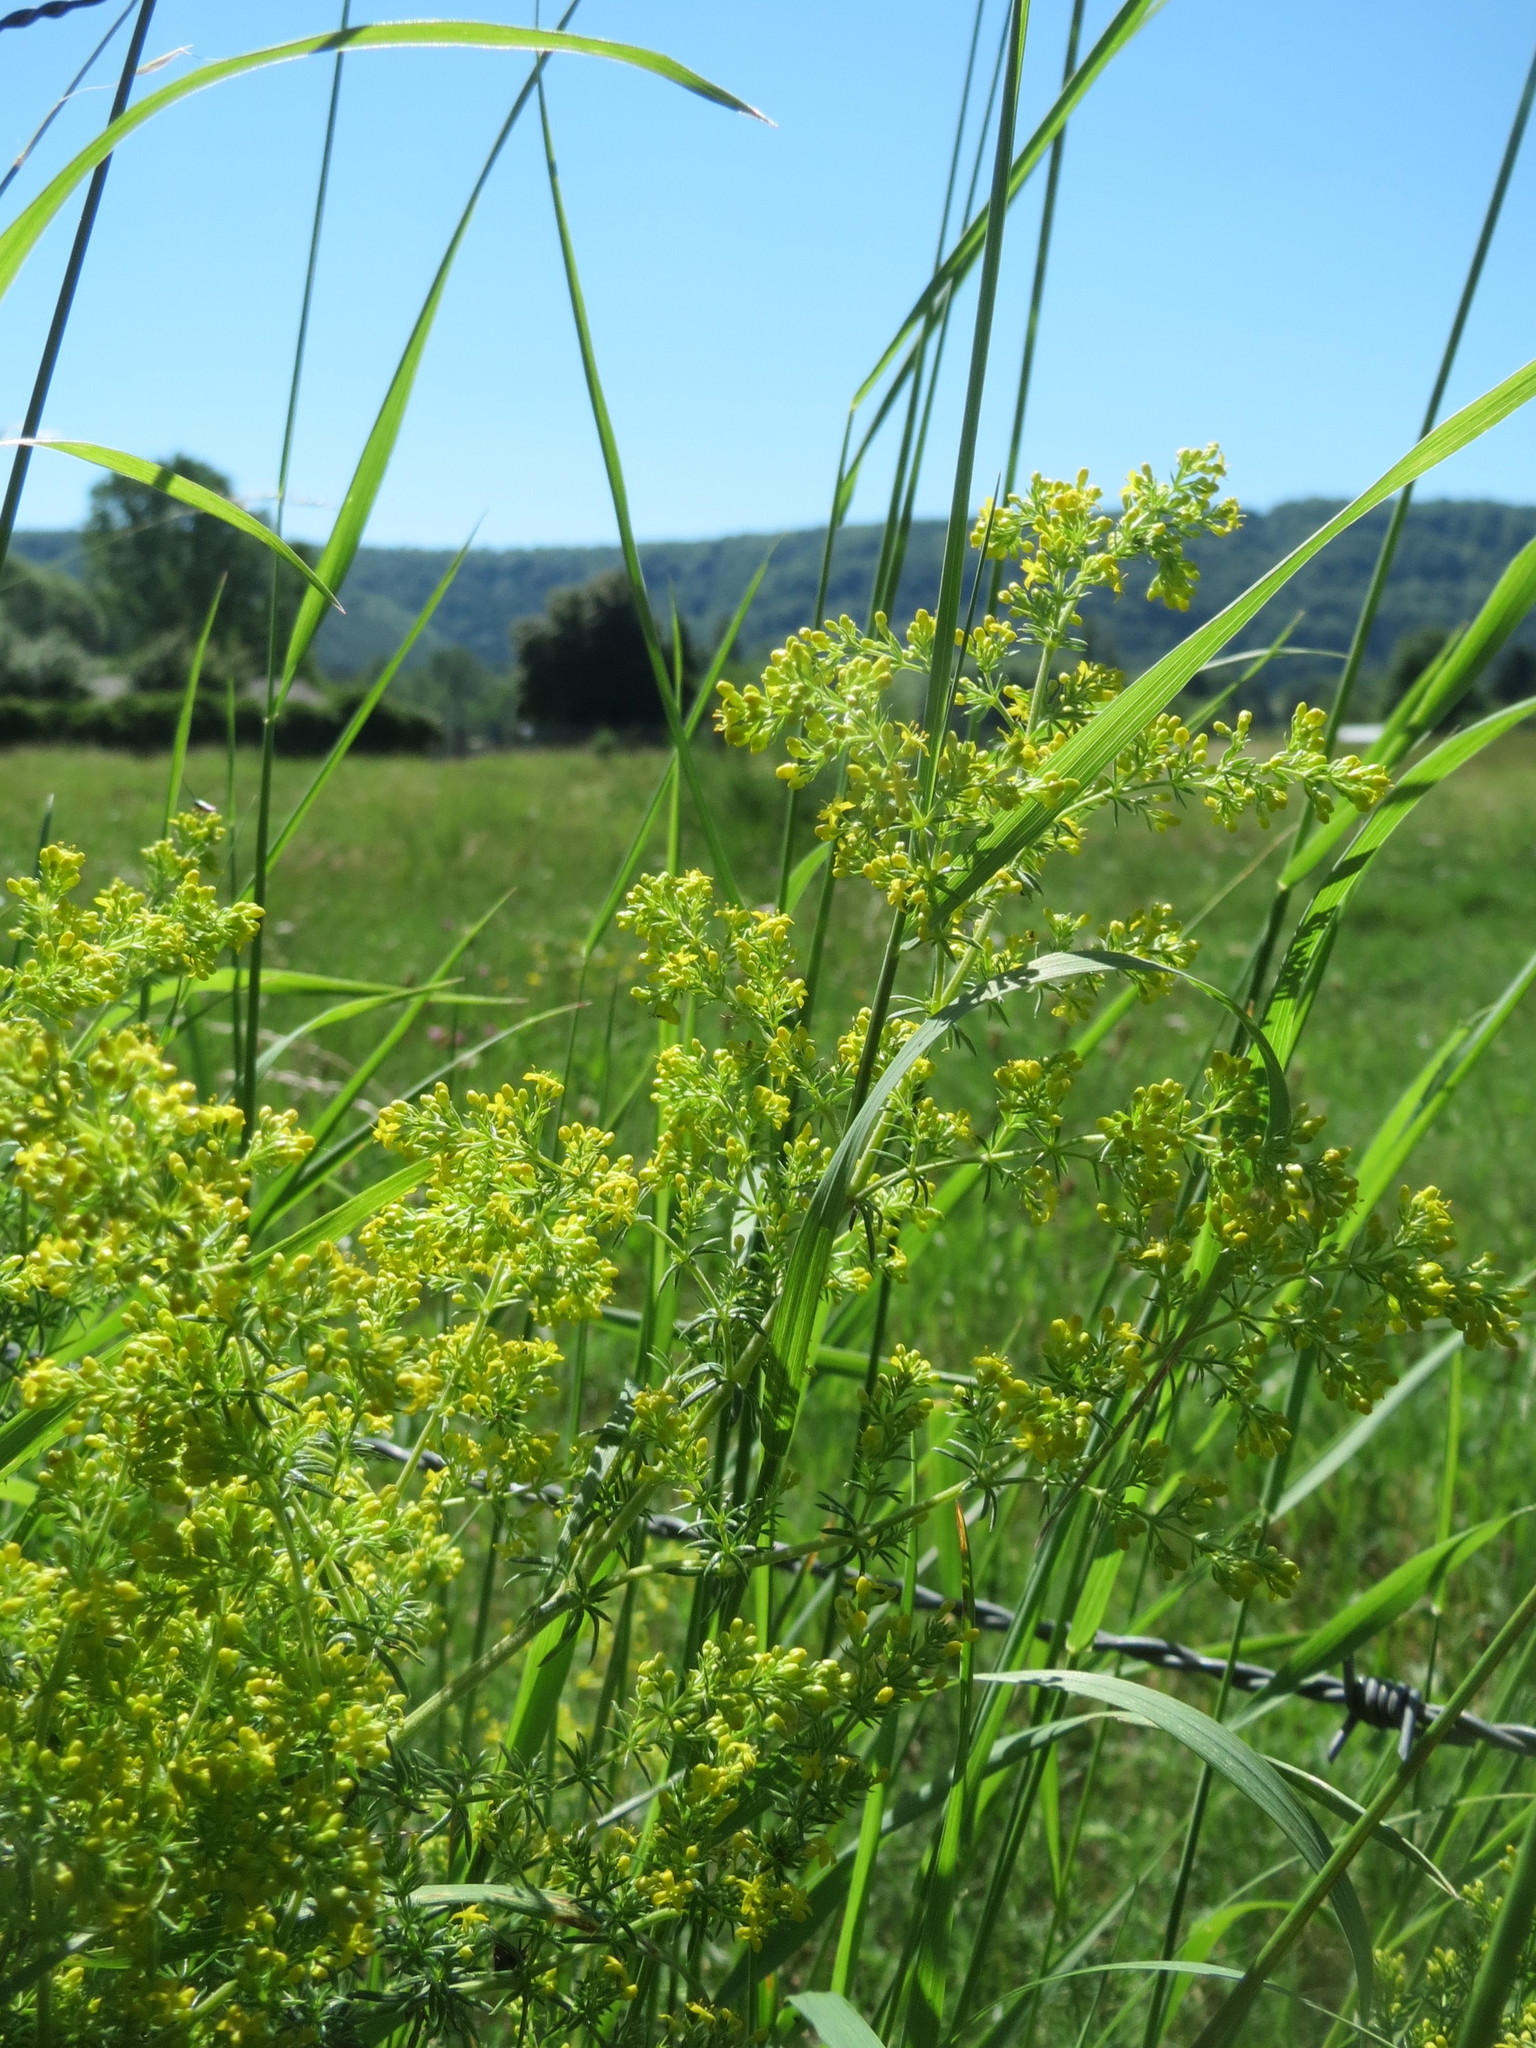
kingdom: Plantae
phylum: Tracheophyta
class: Magnoliopsida
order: Gentianales
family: Rubiaceae
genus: Galium
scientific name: Galium verum
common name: Lady's bedstraw
